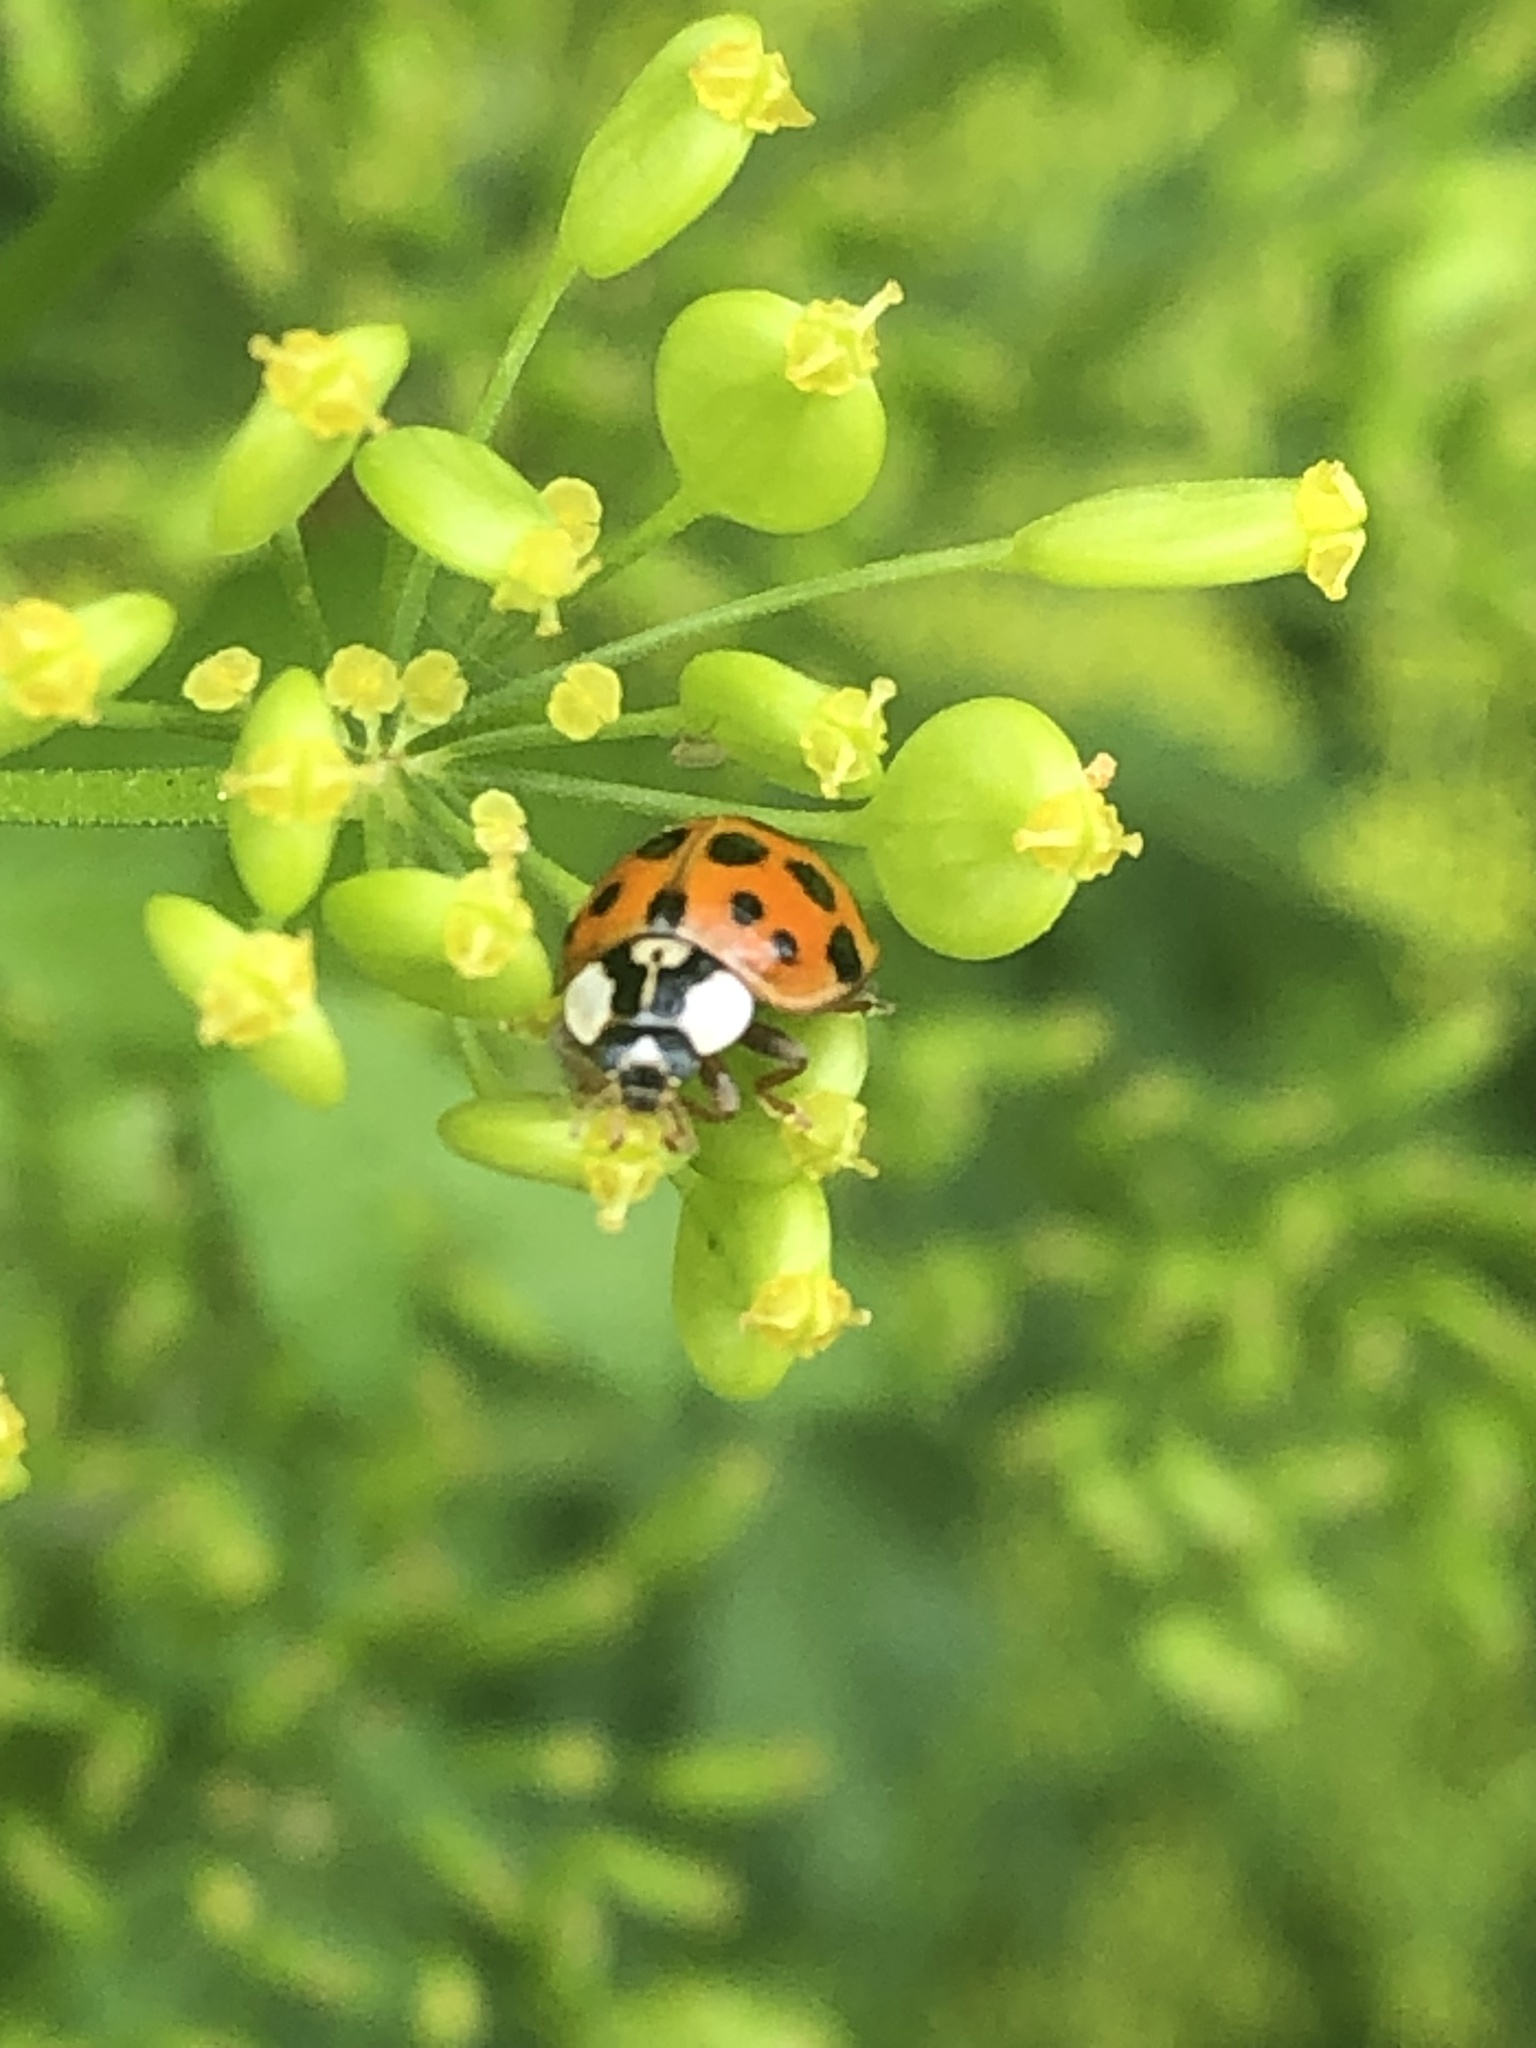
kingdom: Animalia
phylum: Arthropoda
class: Insecta
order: Coleoptera
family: Coccinellidae
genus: Harmonia
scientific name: Harmonia axyridis
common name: Harlequin ladybird
